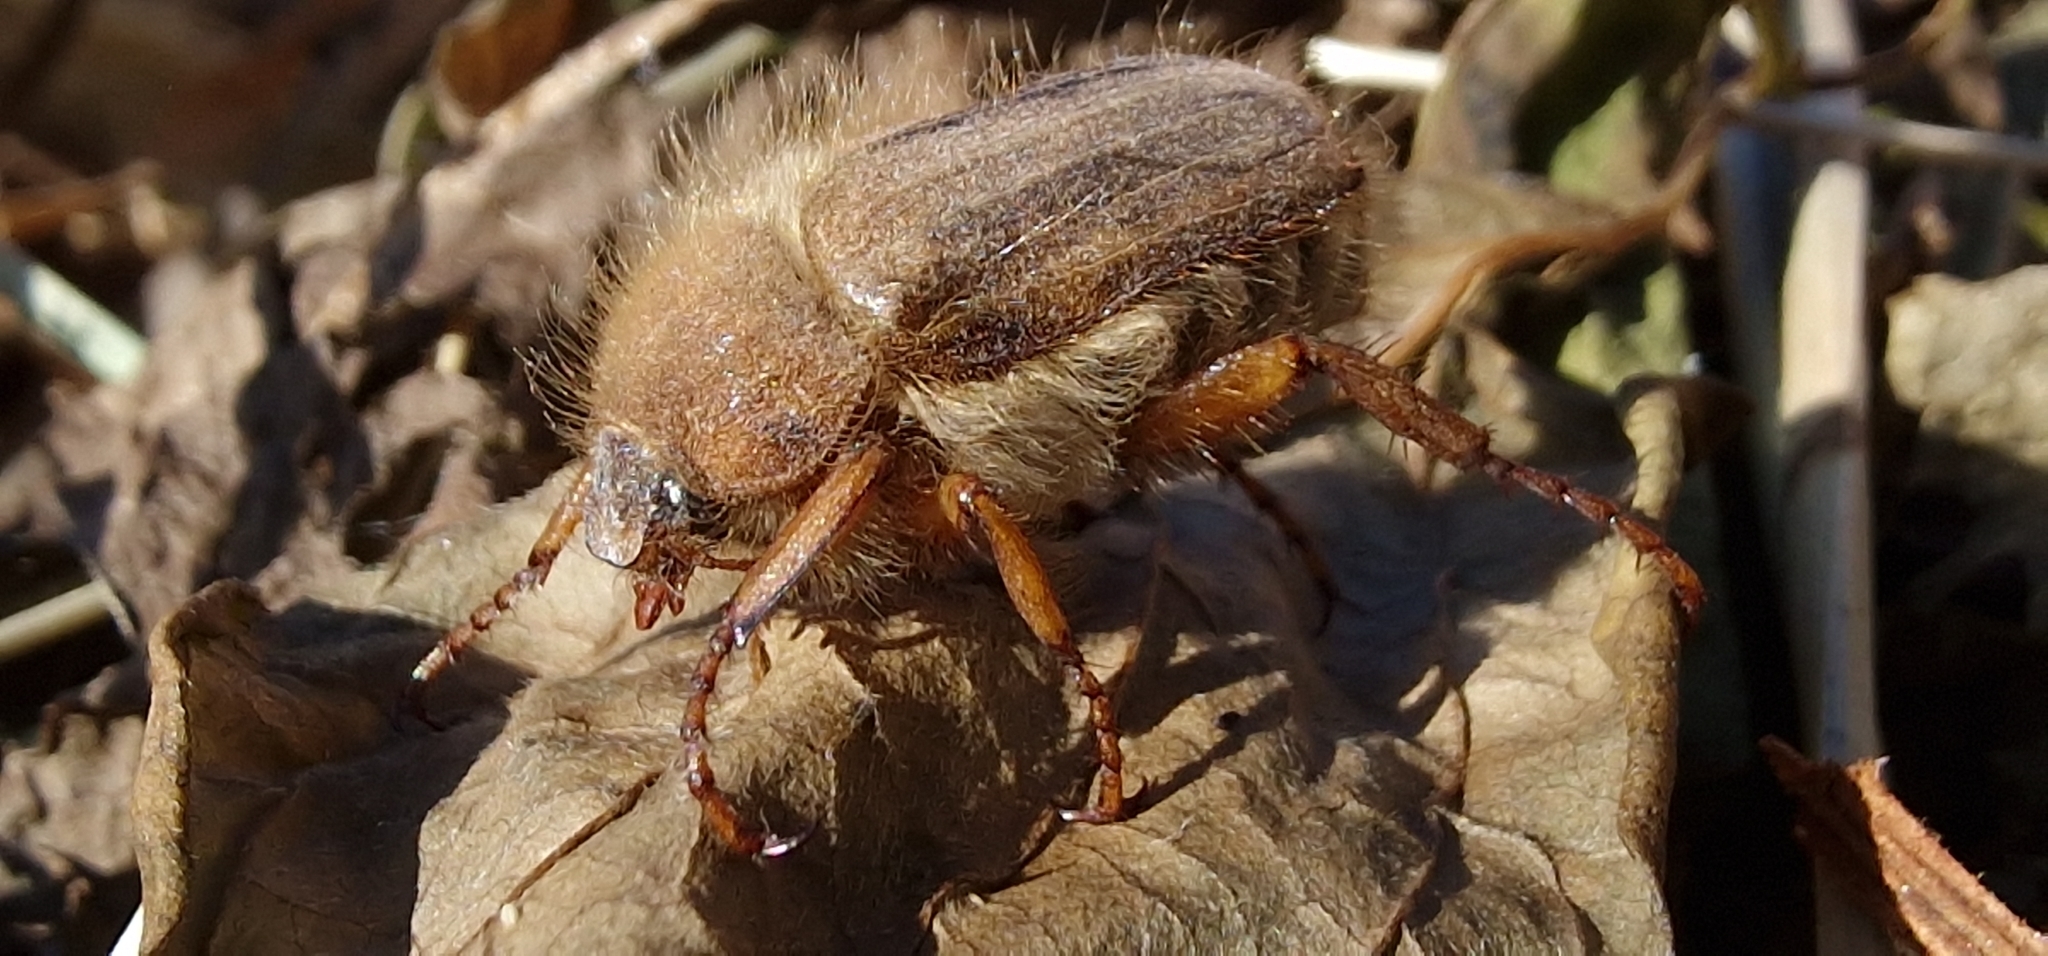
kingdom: Animalia
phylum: Arthropoda
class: Insecta
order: Coleoptera
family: Scarabaeidae
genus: Amphimallon
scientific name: Amphimallon solstitiale
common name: Summer chafer
